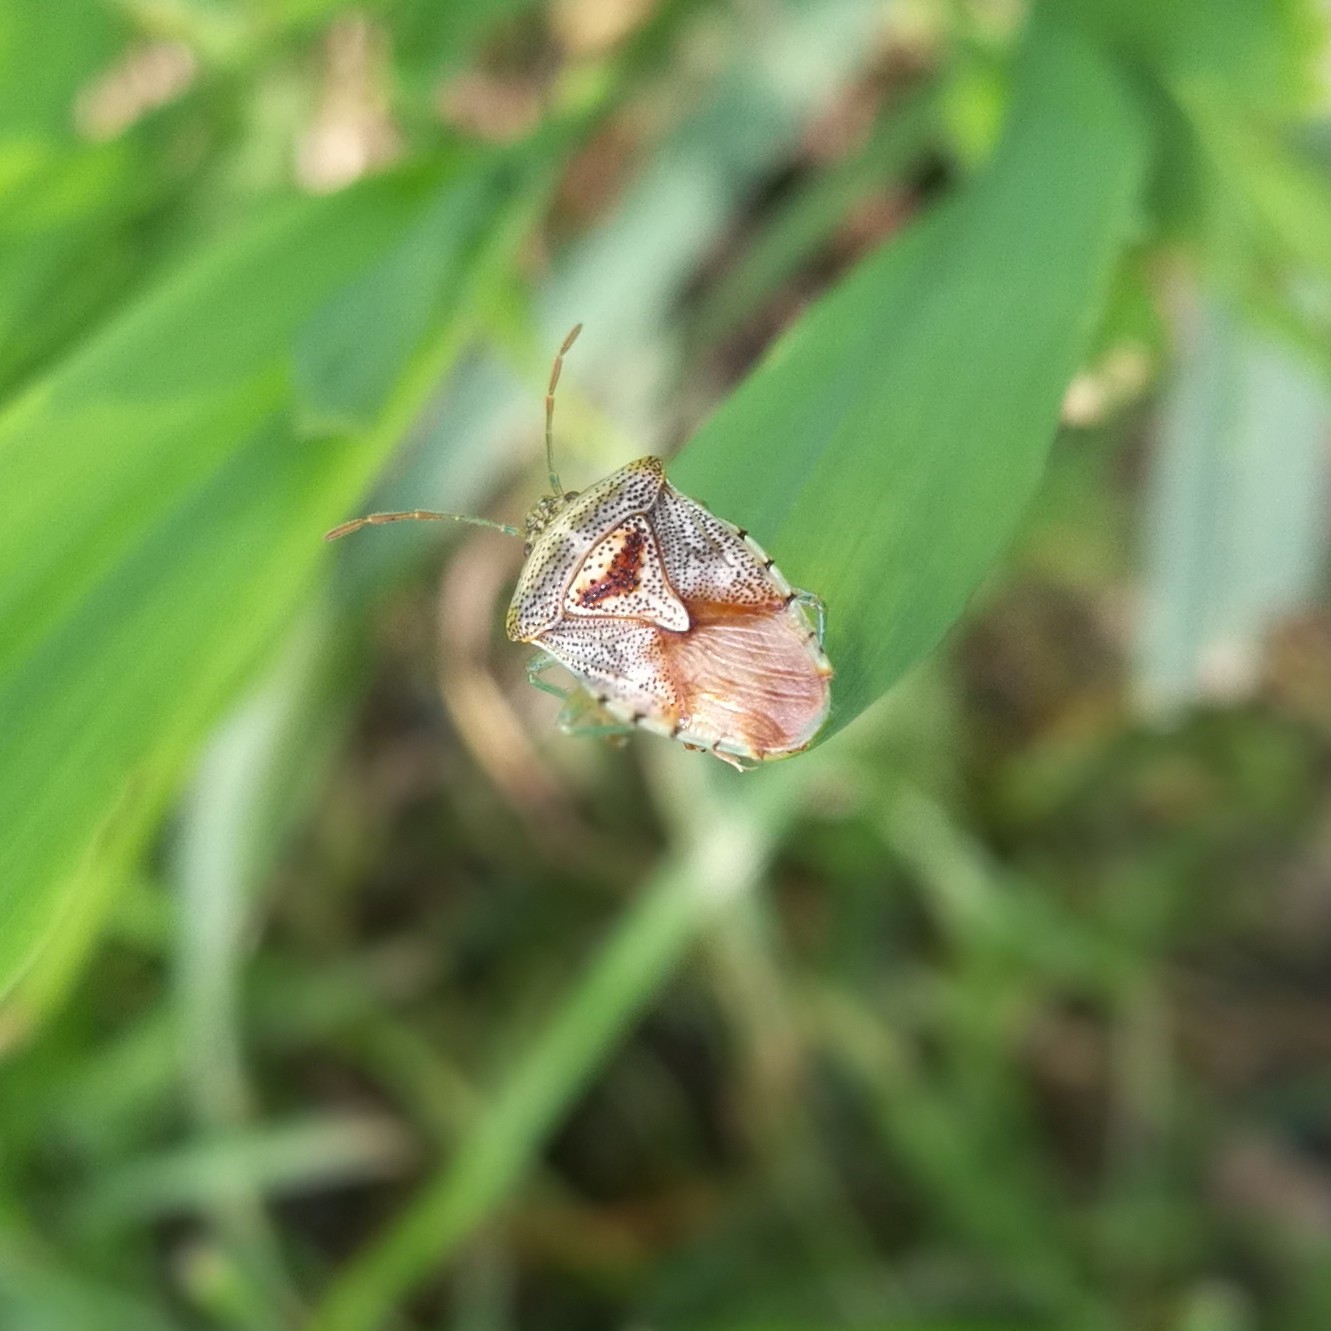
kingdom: Animalia
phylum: Arthropoda
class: Insecta
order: Hemiptera
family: Acanthosomatidae
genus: Elasmucha
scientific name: Elasmucha grisea
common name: Parent bug
